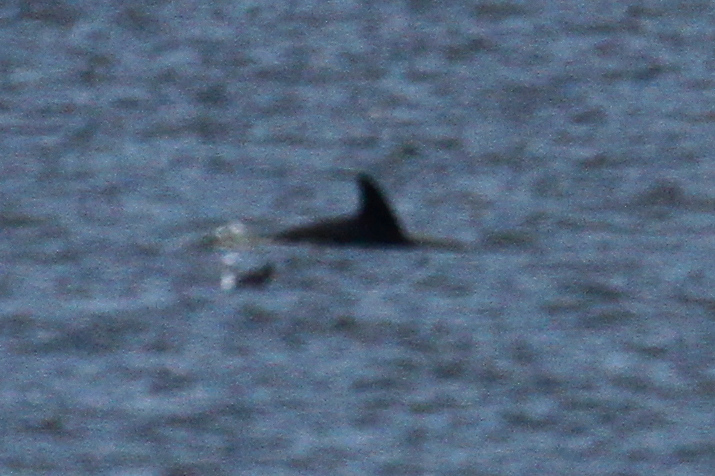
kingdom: Animalia
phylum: Chordata
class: Mammalia
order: Cetacea
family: Delphinidae
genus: Tursiops
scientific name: Tursiops truncatus
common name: Bottlenose dolphin
